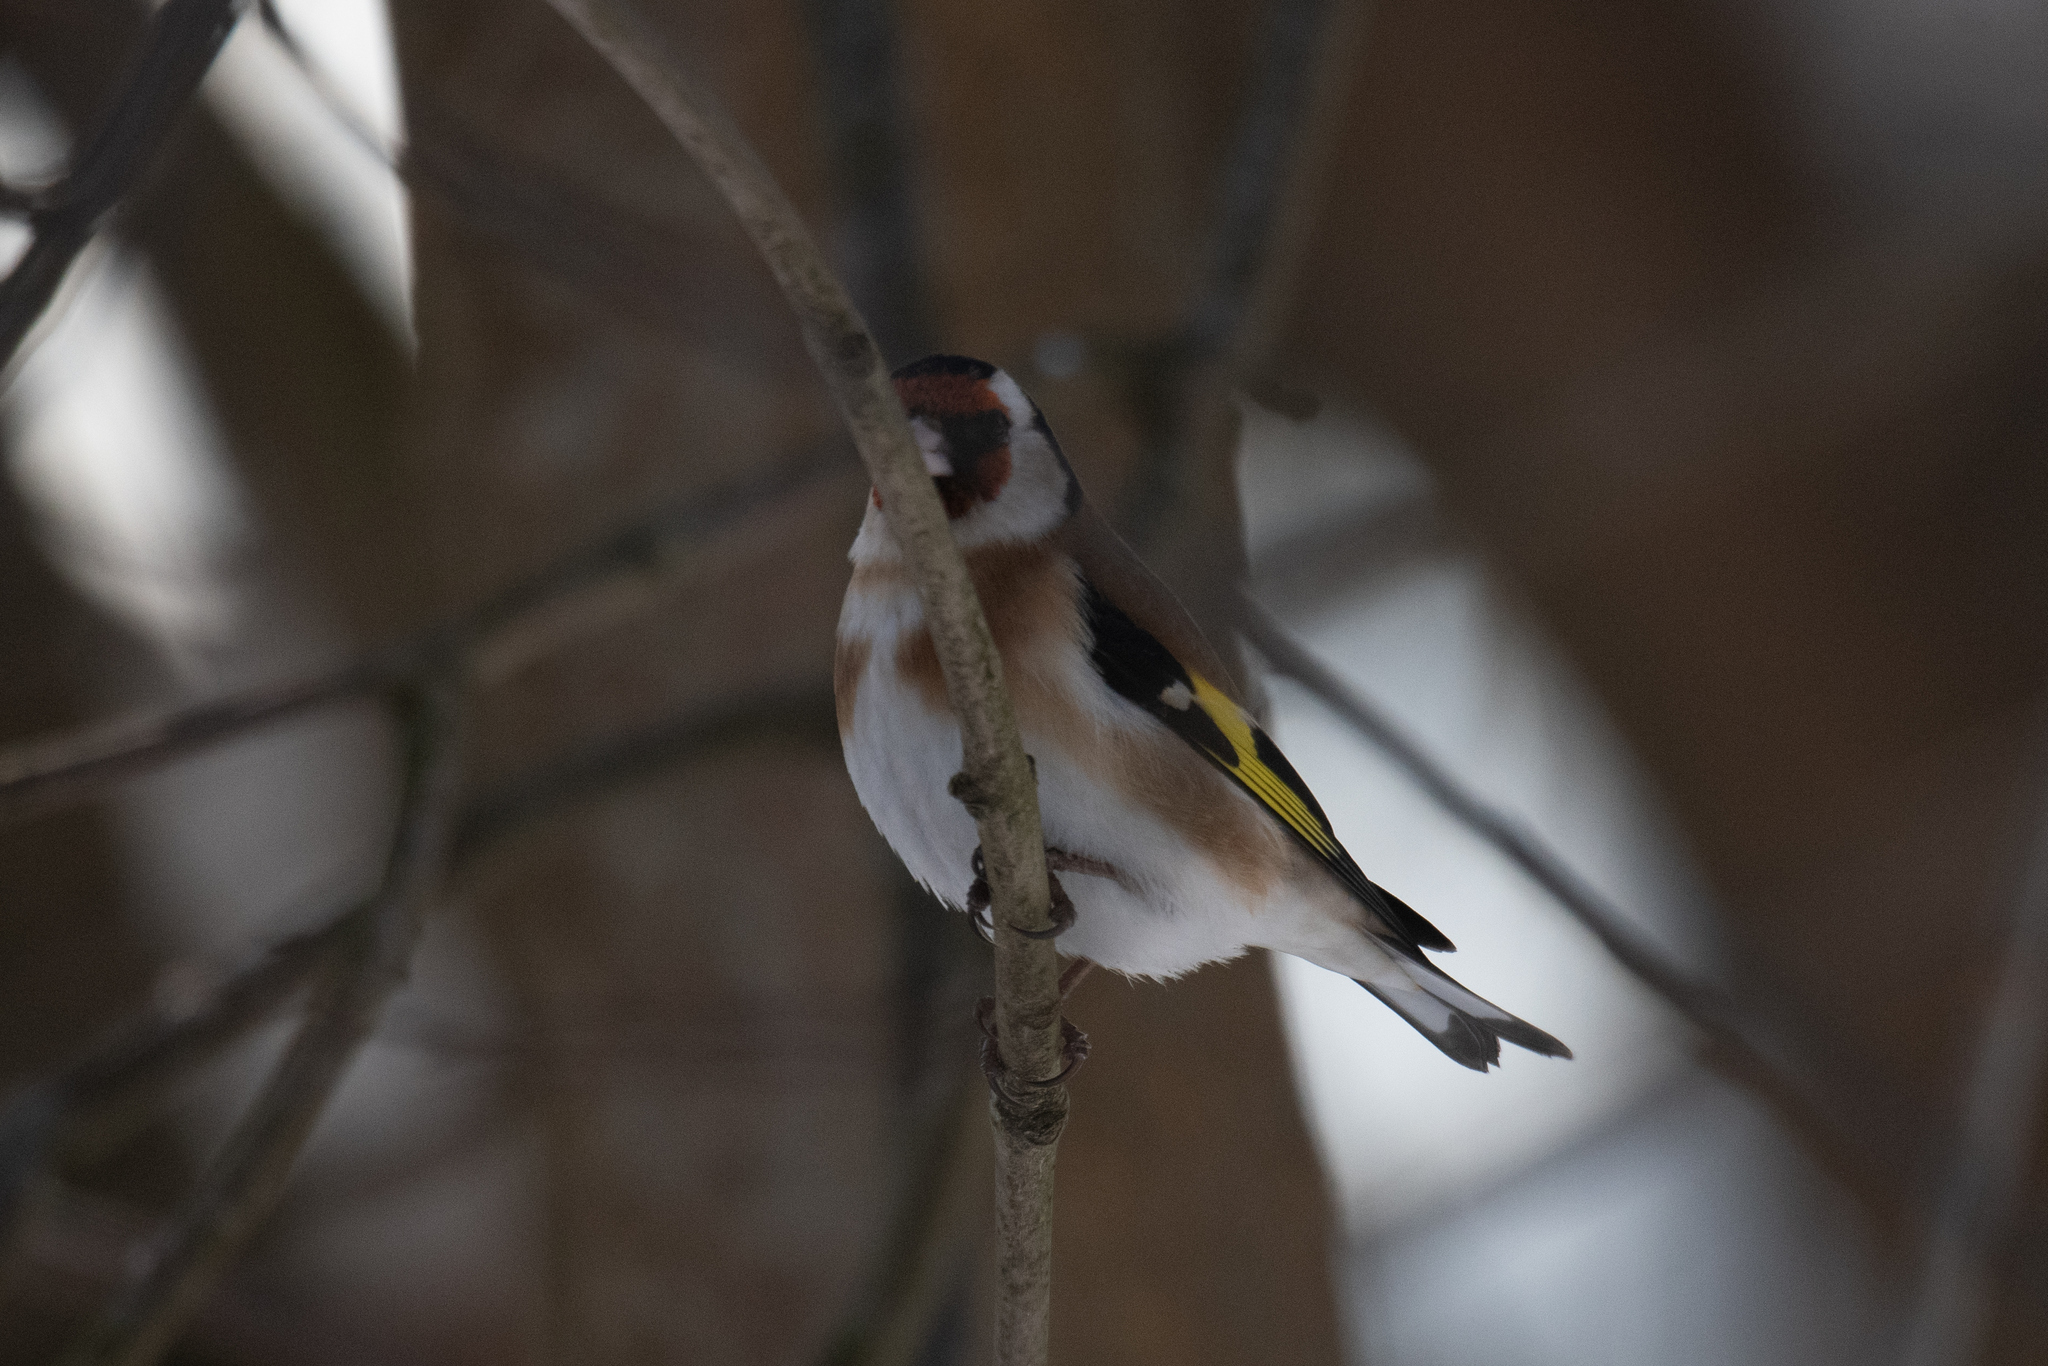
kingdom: Animalia
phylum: Chordata
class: Aves
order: Passeriformes
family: Fringillidae
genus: Carduelis
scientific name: Carduelis carduelis
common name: European goldfinch
